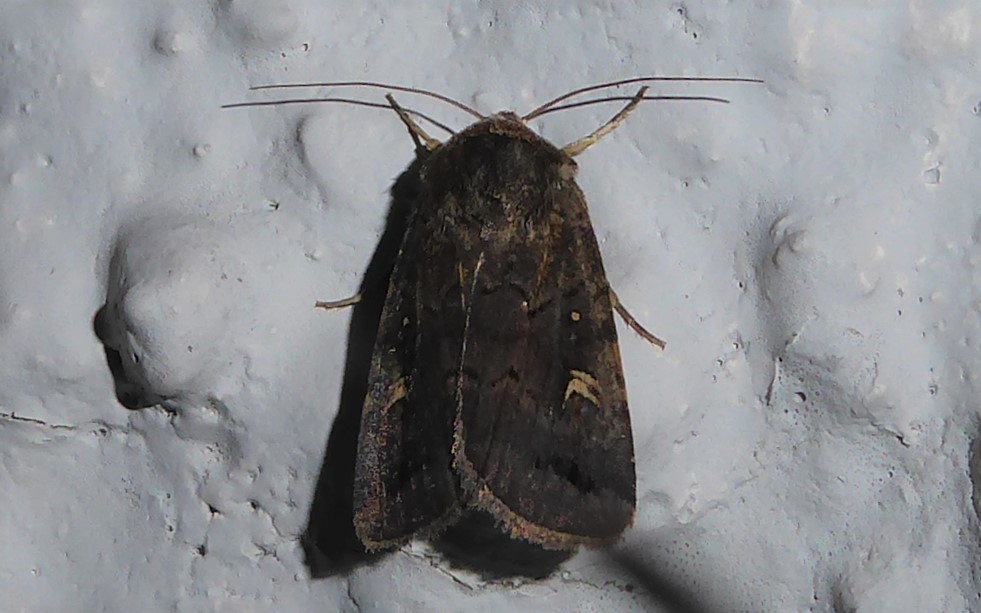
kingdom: Animalia
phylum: Arthropoda
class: Insecta
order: Lepidoptera
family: Noctuidae
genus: Proteuxoa
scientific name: Proteuxoa tetronycha
